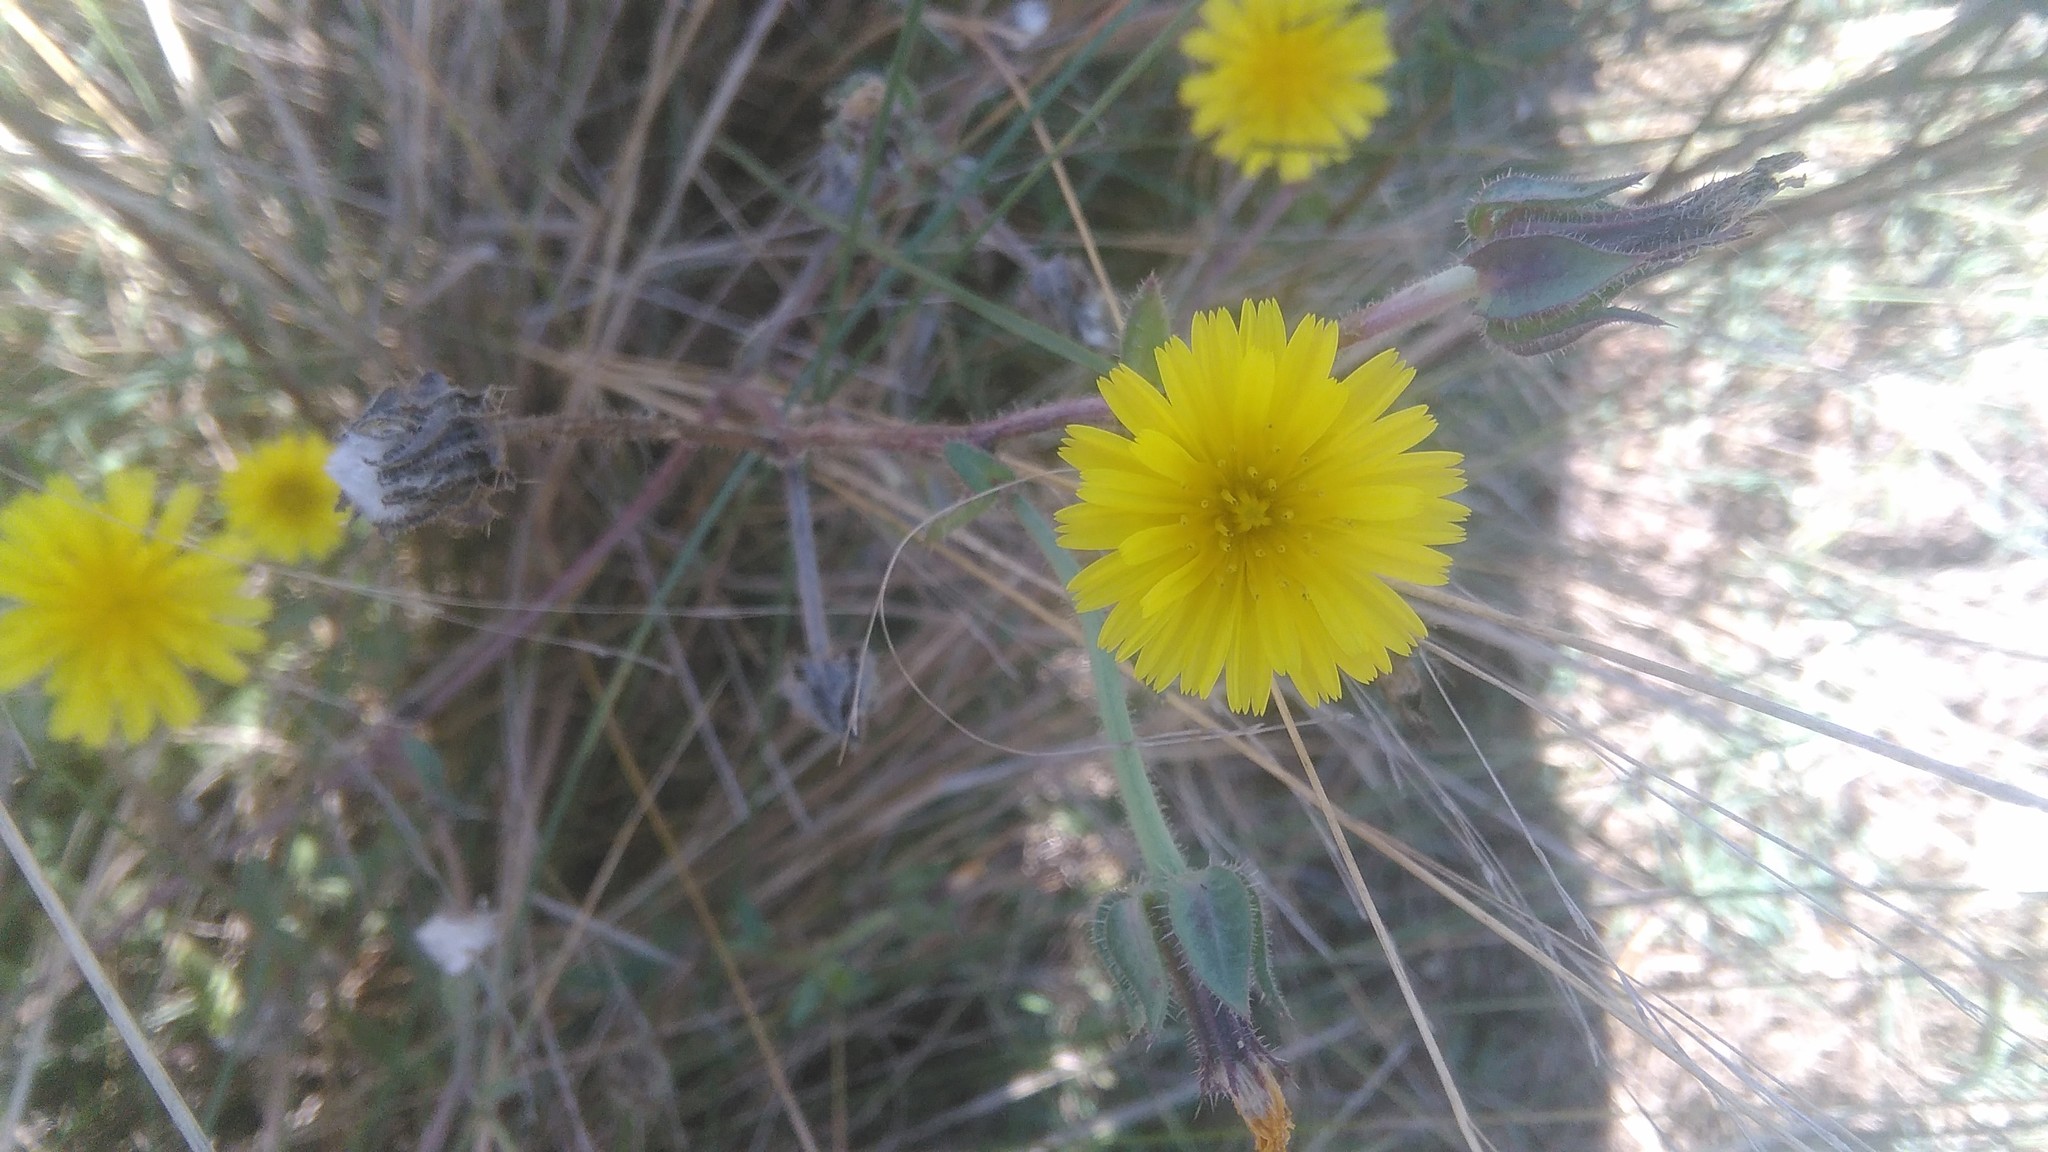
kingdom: Plantae
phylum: Tracheophyta
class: Magnoliopsida
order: Asterales
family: Asteraceae
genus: Helminthotheca
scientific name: Helminthotheca echioides
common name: Ox-tongue
